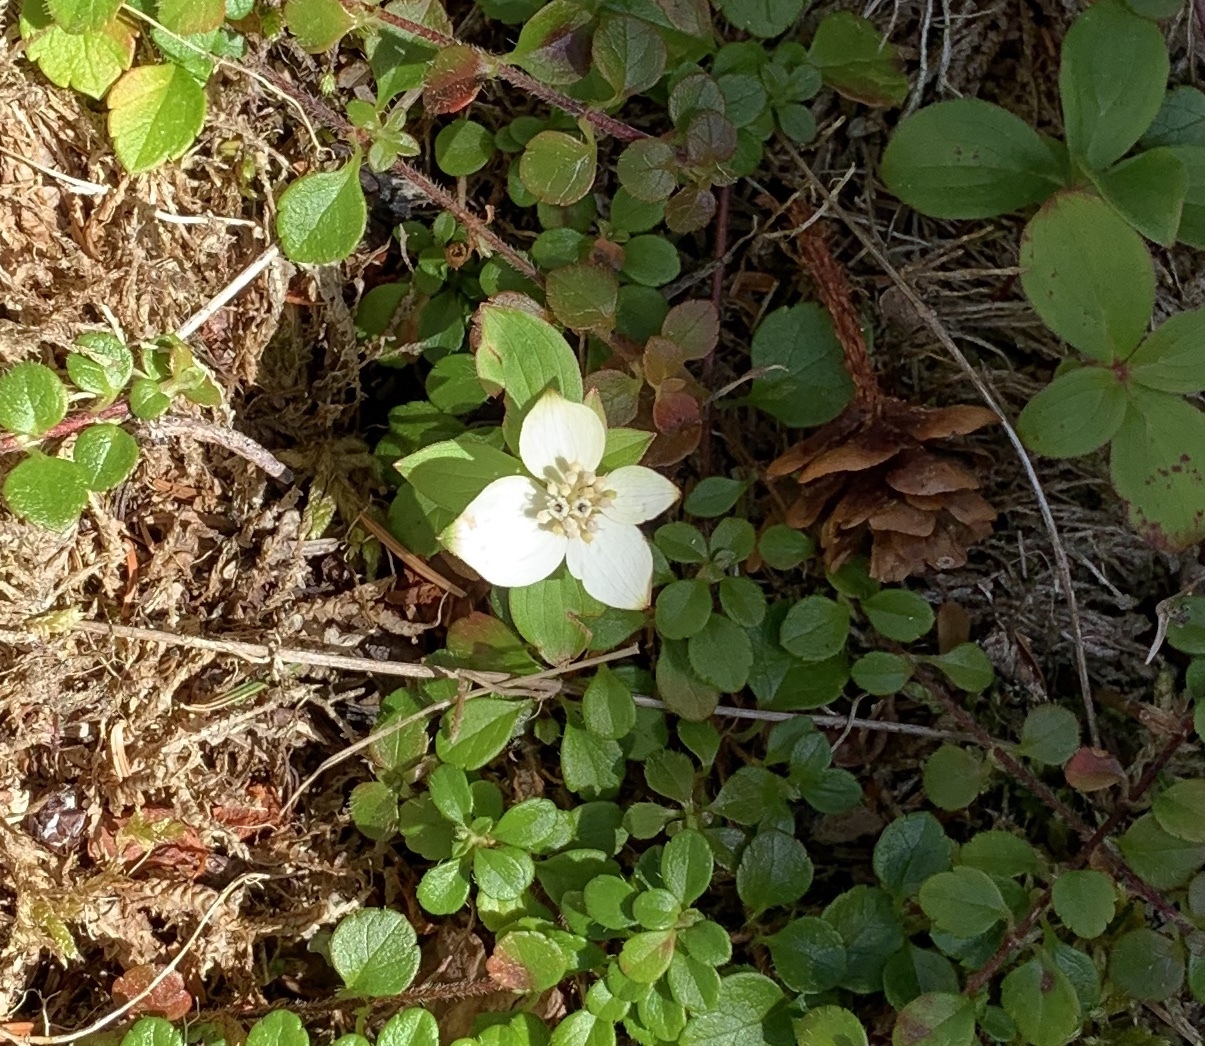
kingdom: Plantae
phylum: Tracheophyta
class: Magnoliopsida
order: Cornales
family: Cornaceae
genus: Cornus
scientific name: Cornus canadensis
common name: Creeping dogwood
